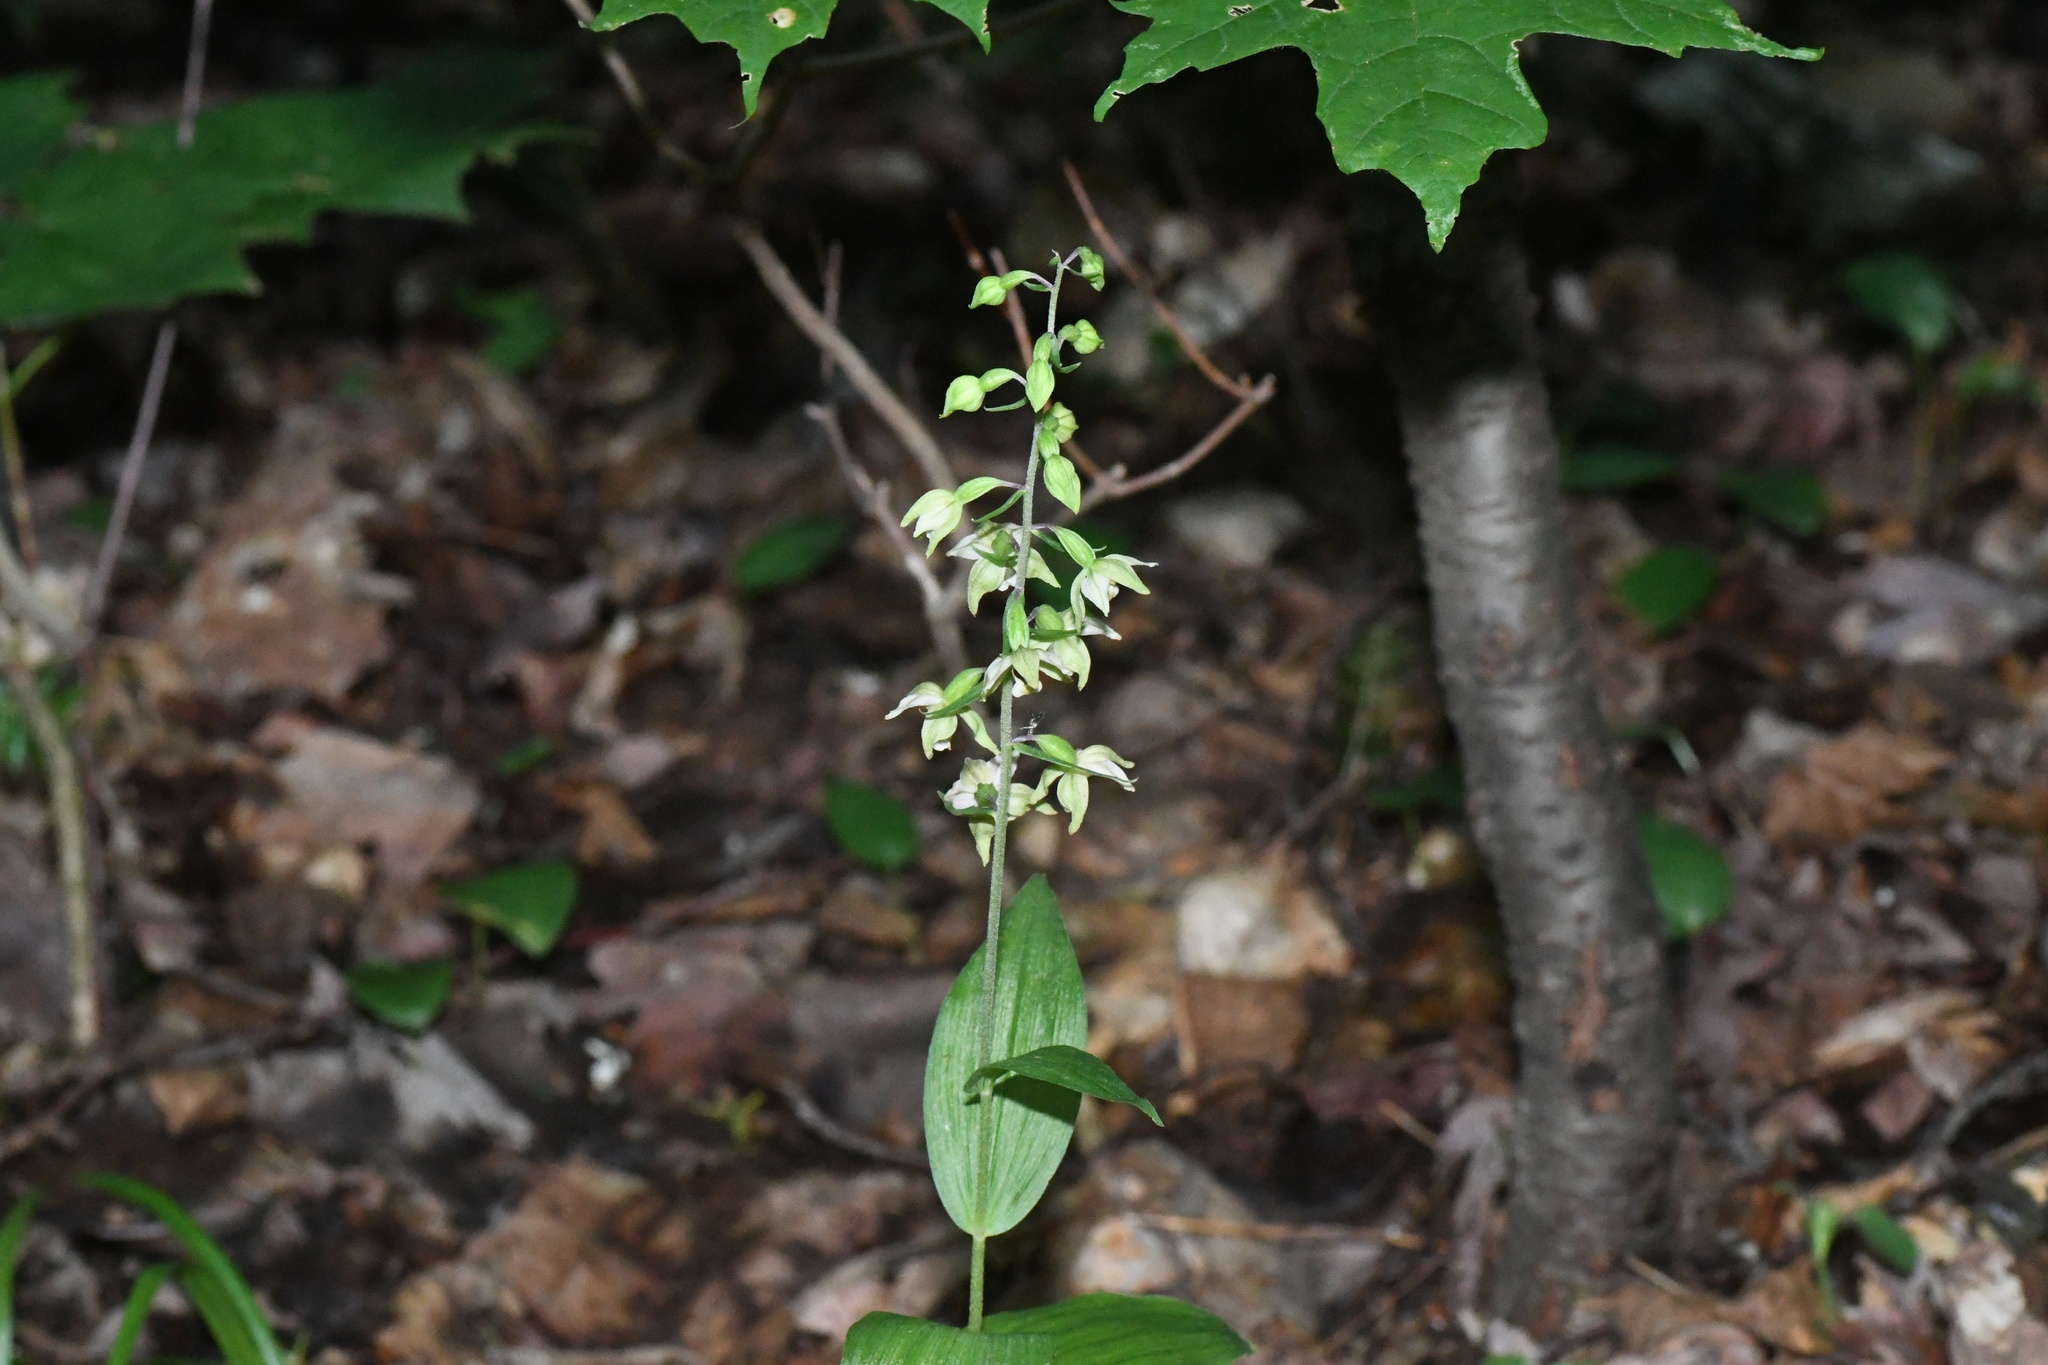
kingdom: Plantae
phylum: Tracheophyta
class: Liliopsida
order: Asparagales
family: Orchidaceae
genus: Epipactis
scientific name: Epipactis helleborine
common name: Broad-leaved helleborine
